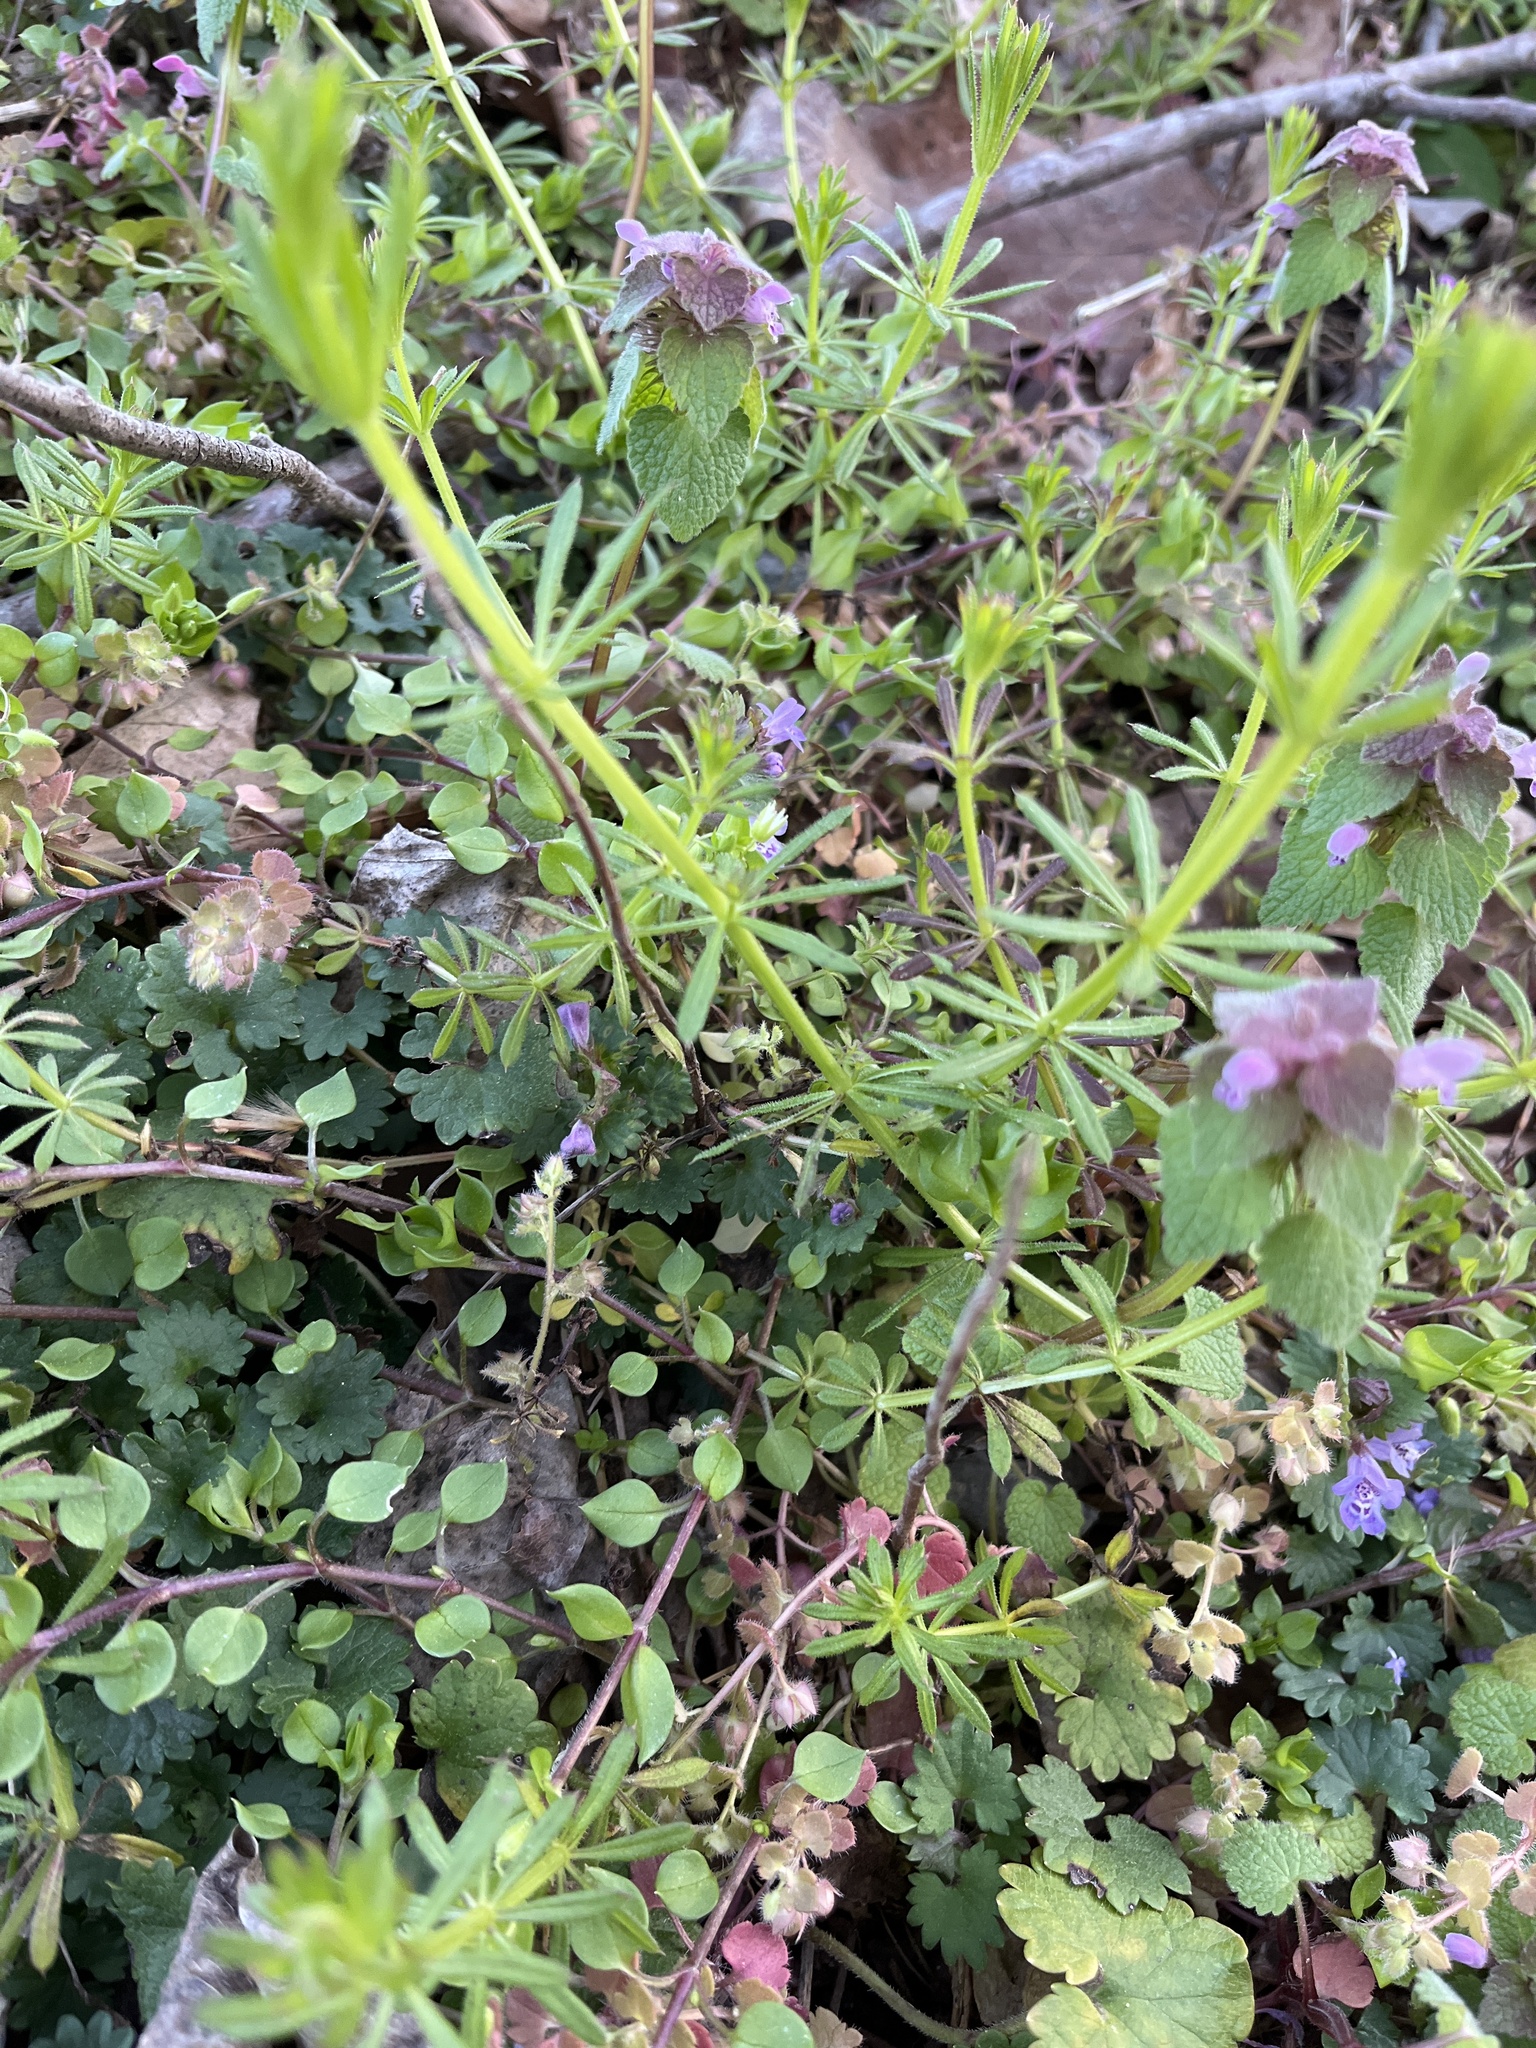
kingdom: Plantae
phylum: Tracheophyta
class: Magnoliopsida
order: Gentianales
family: Rubiaceae
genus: Galium
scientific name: Galium aparine
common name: Cleavers
